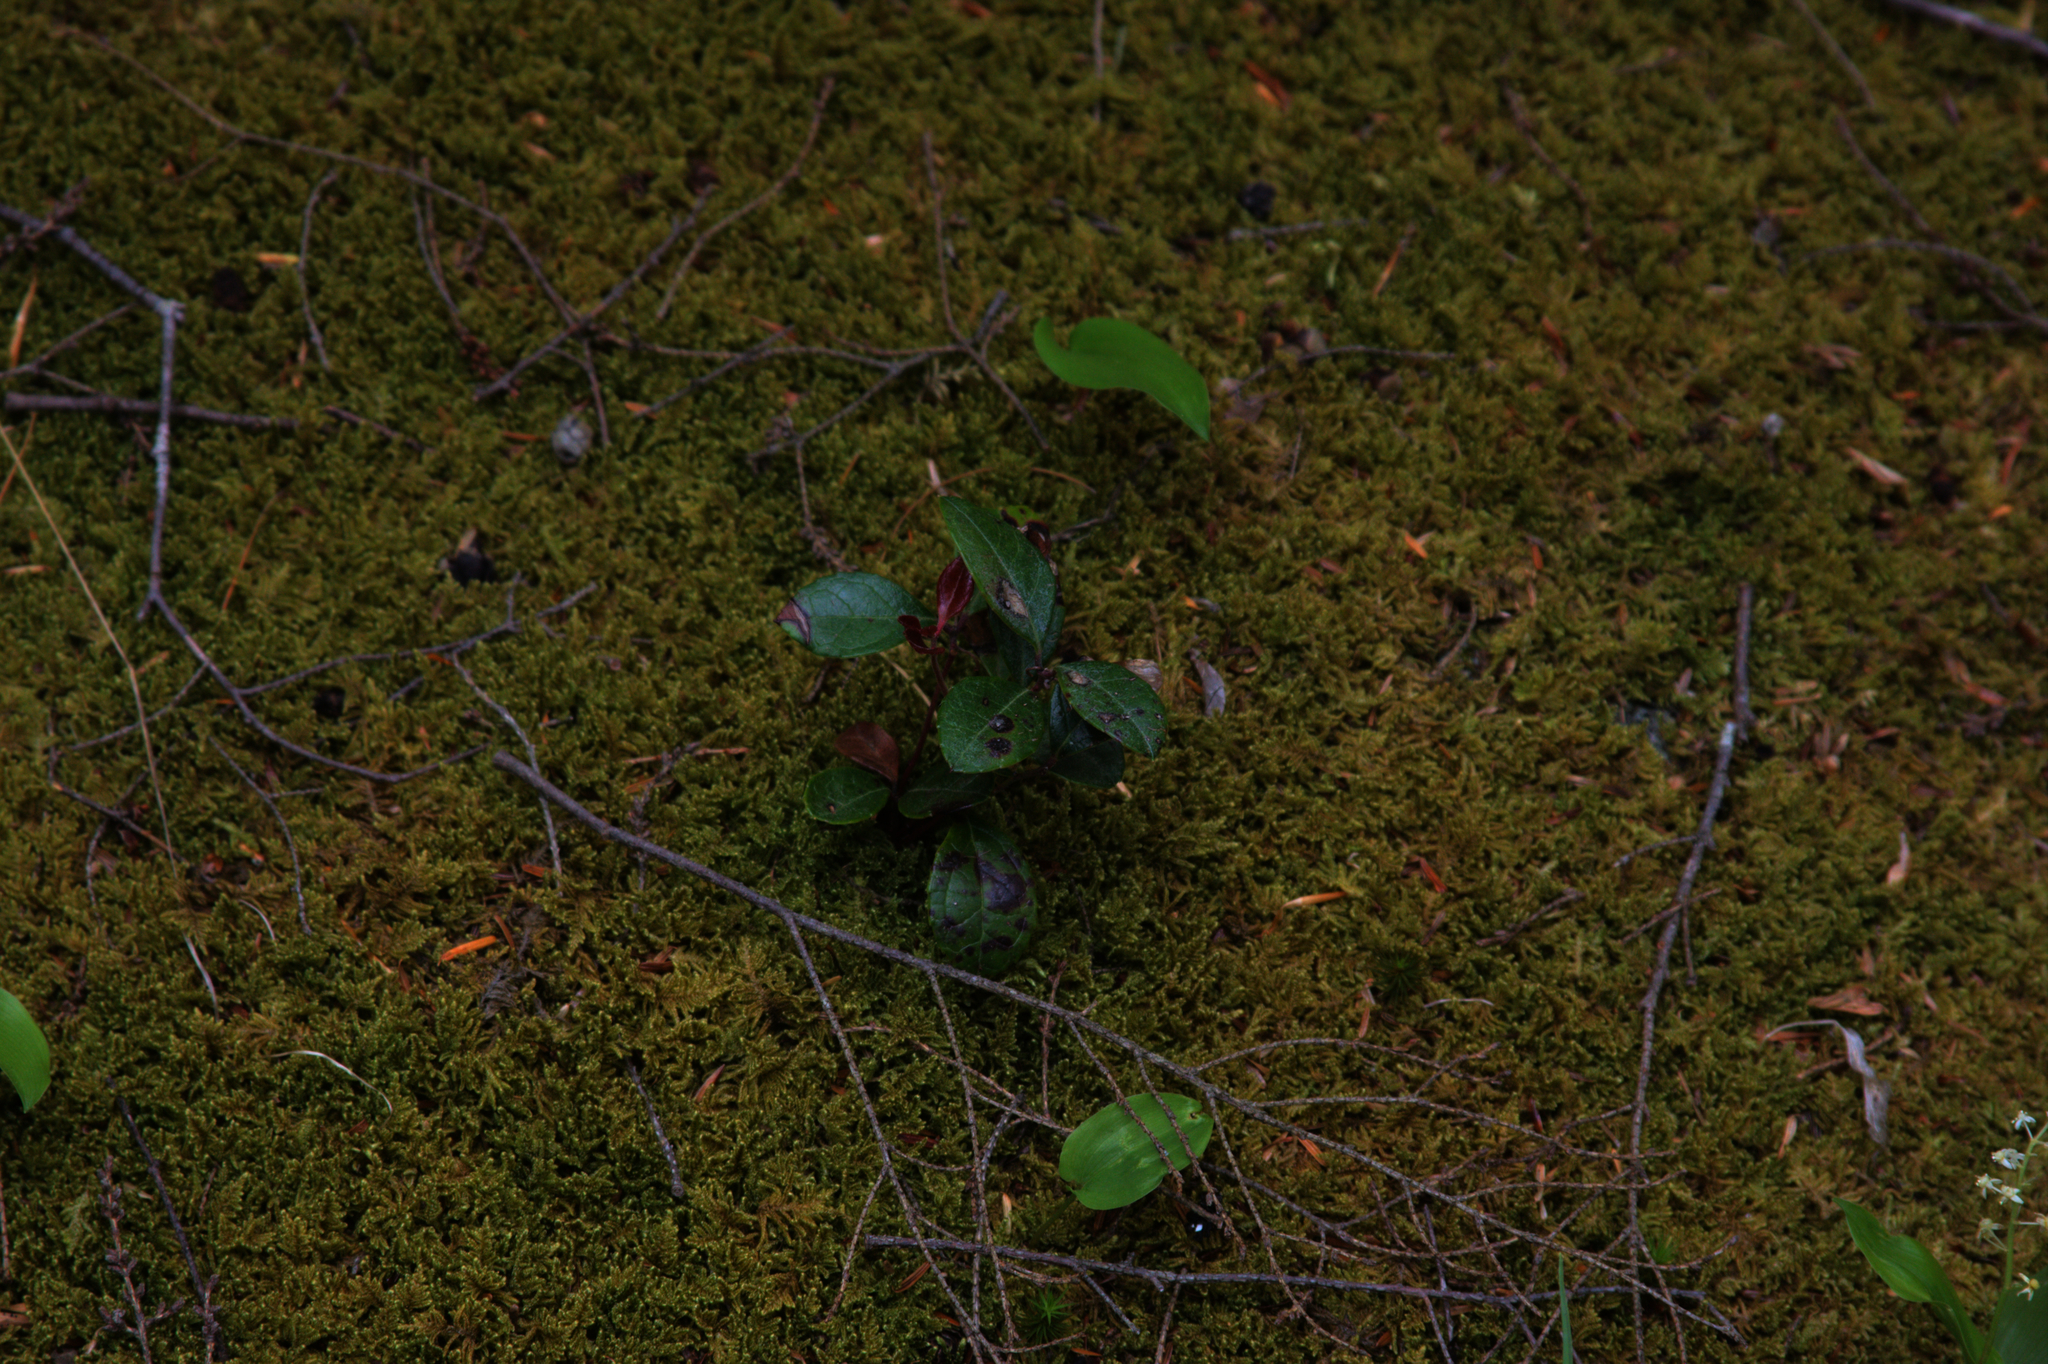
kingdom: Plantae
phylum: Tracheophyta
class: Liliopsida
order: Asparagales
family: Asparagaceae
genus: Maianthemum
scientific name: Maianthemum canadense
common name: False lily-of-the-valley
